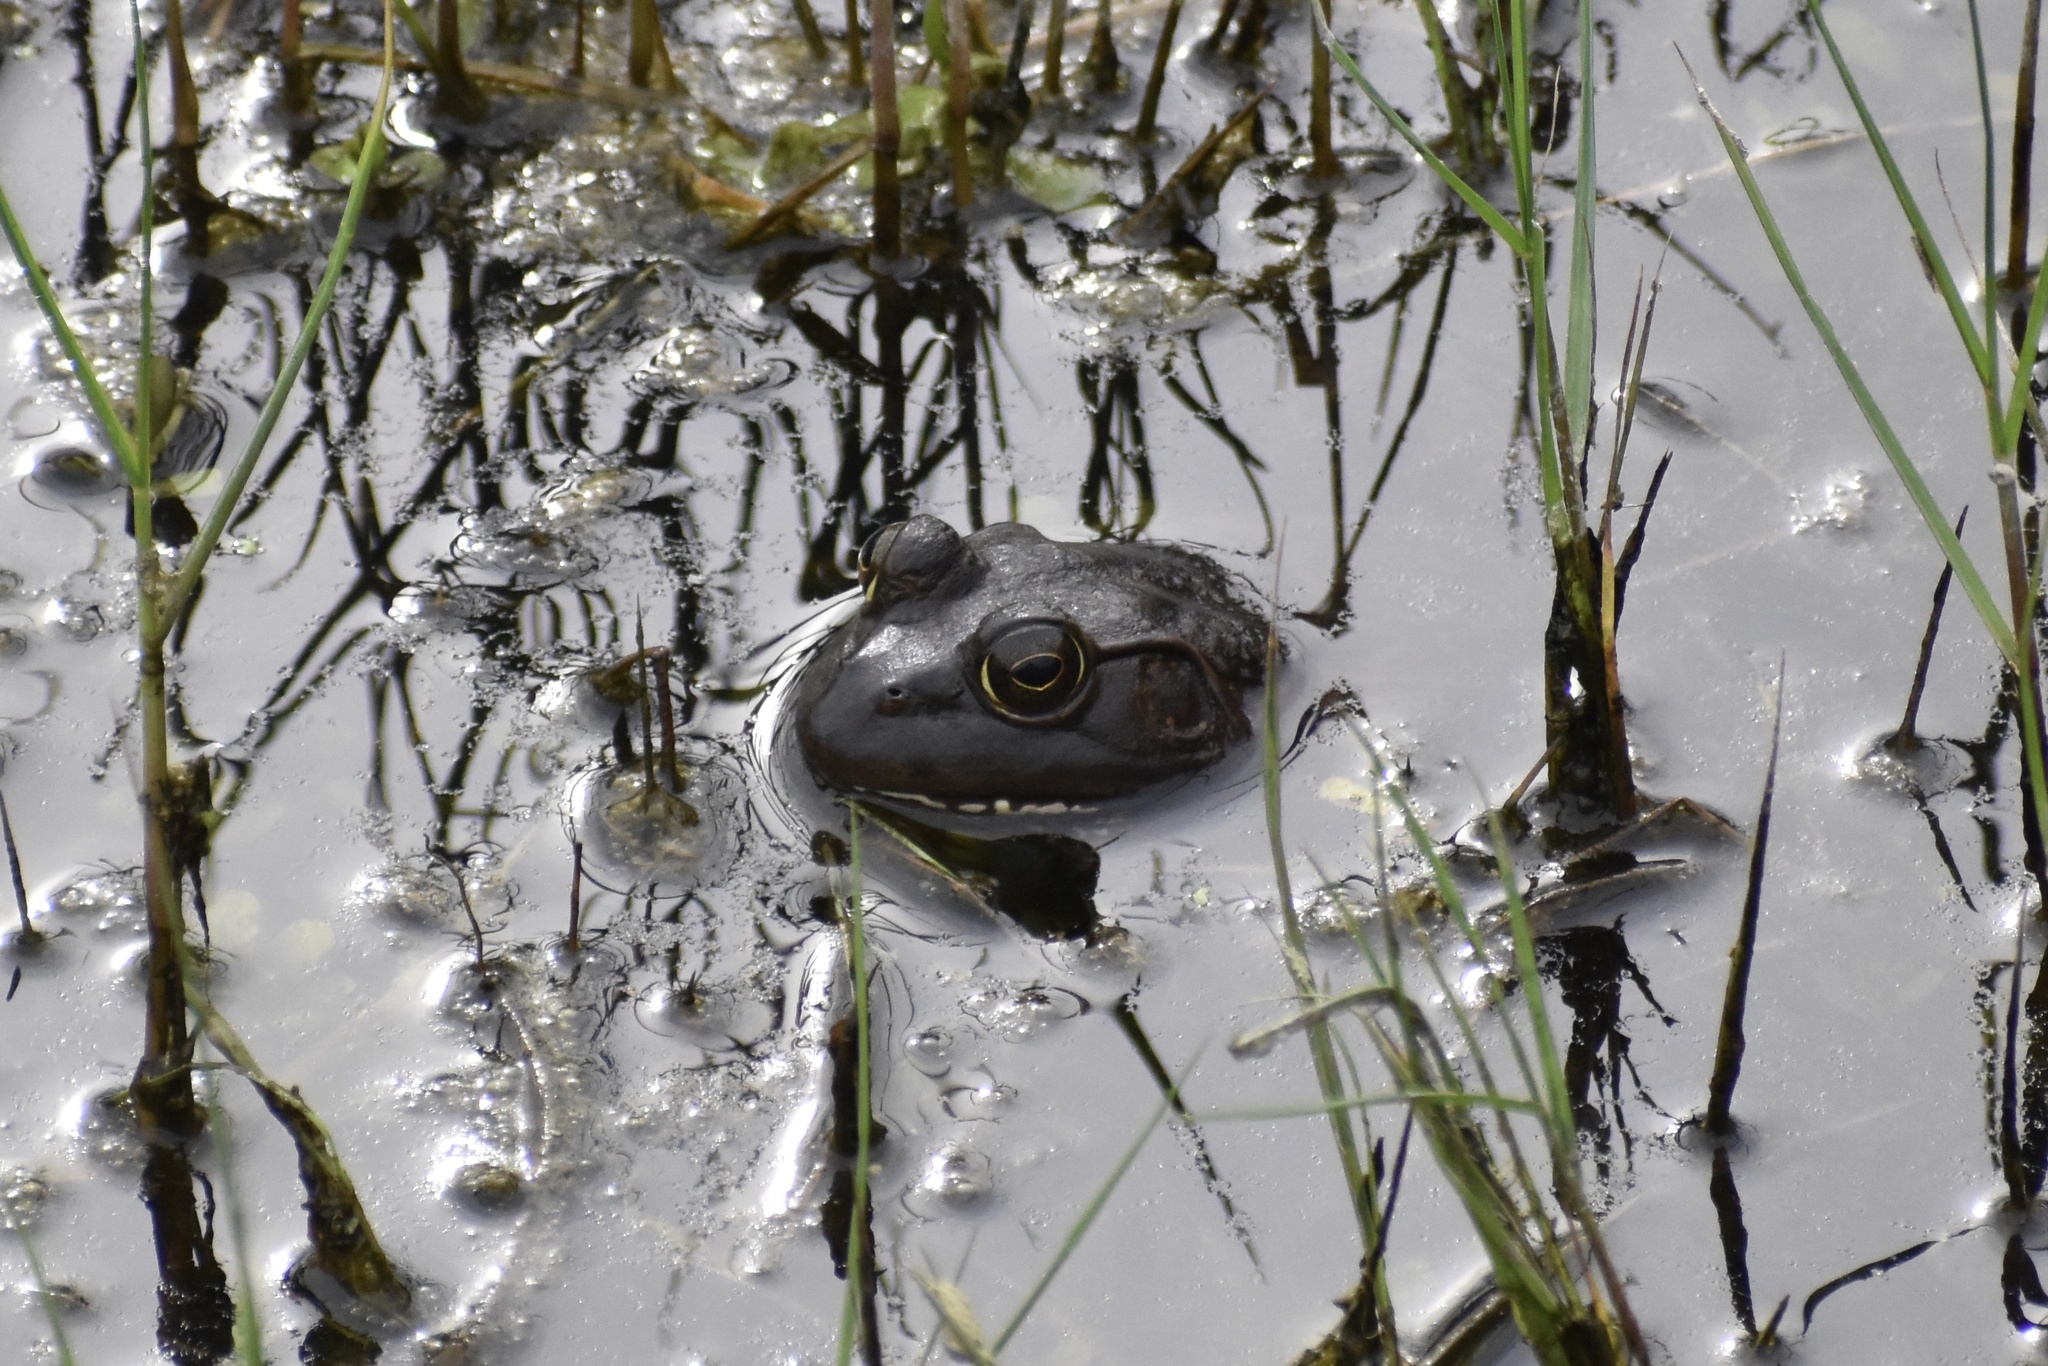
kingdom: Animalia
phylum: Chordata
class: Amphibia
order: Anura
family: Ranidae
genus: Lithobates
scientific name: Lithobates catesbeianus
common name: American bullfrog
